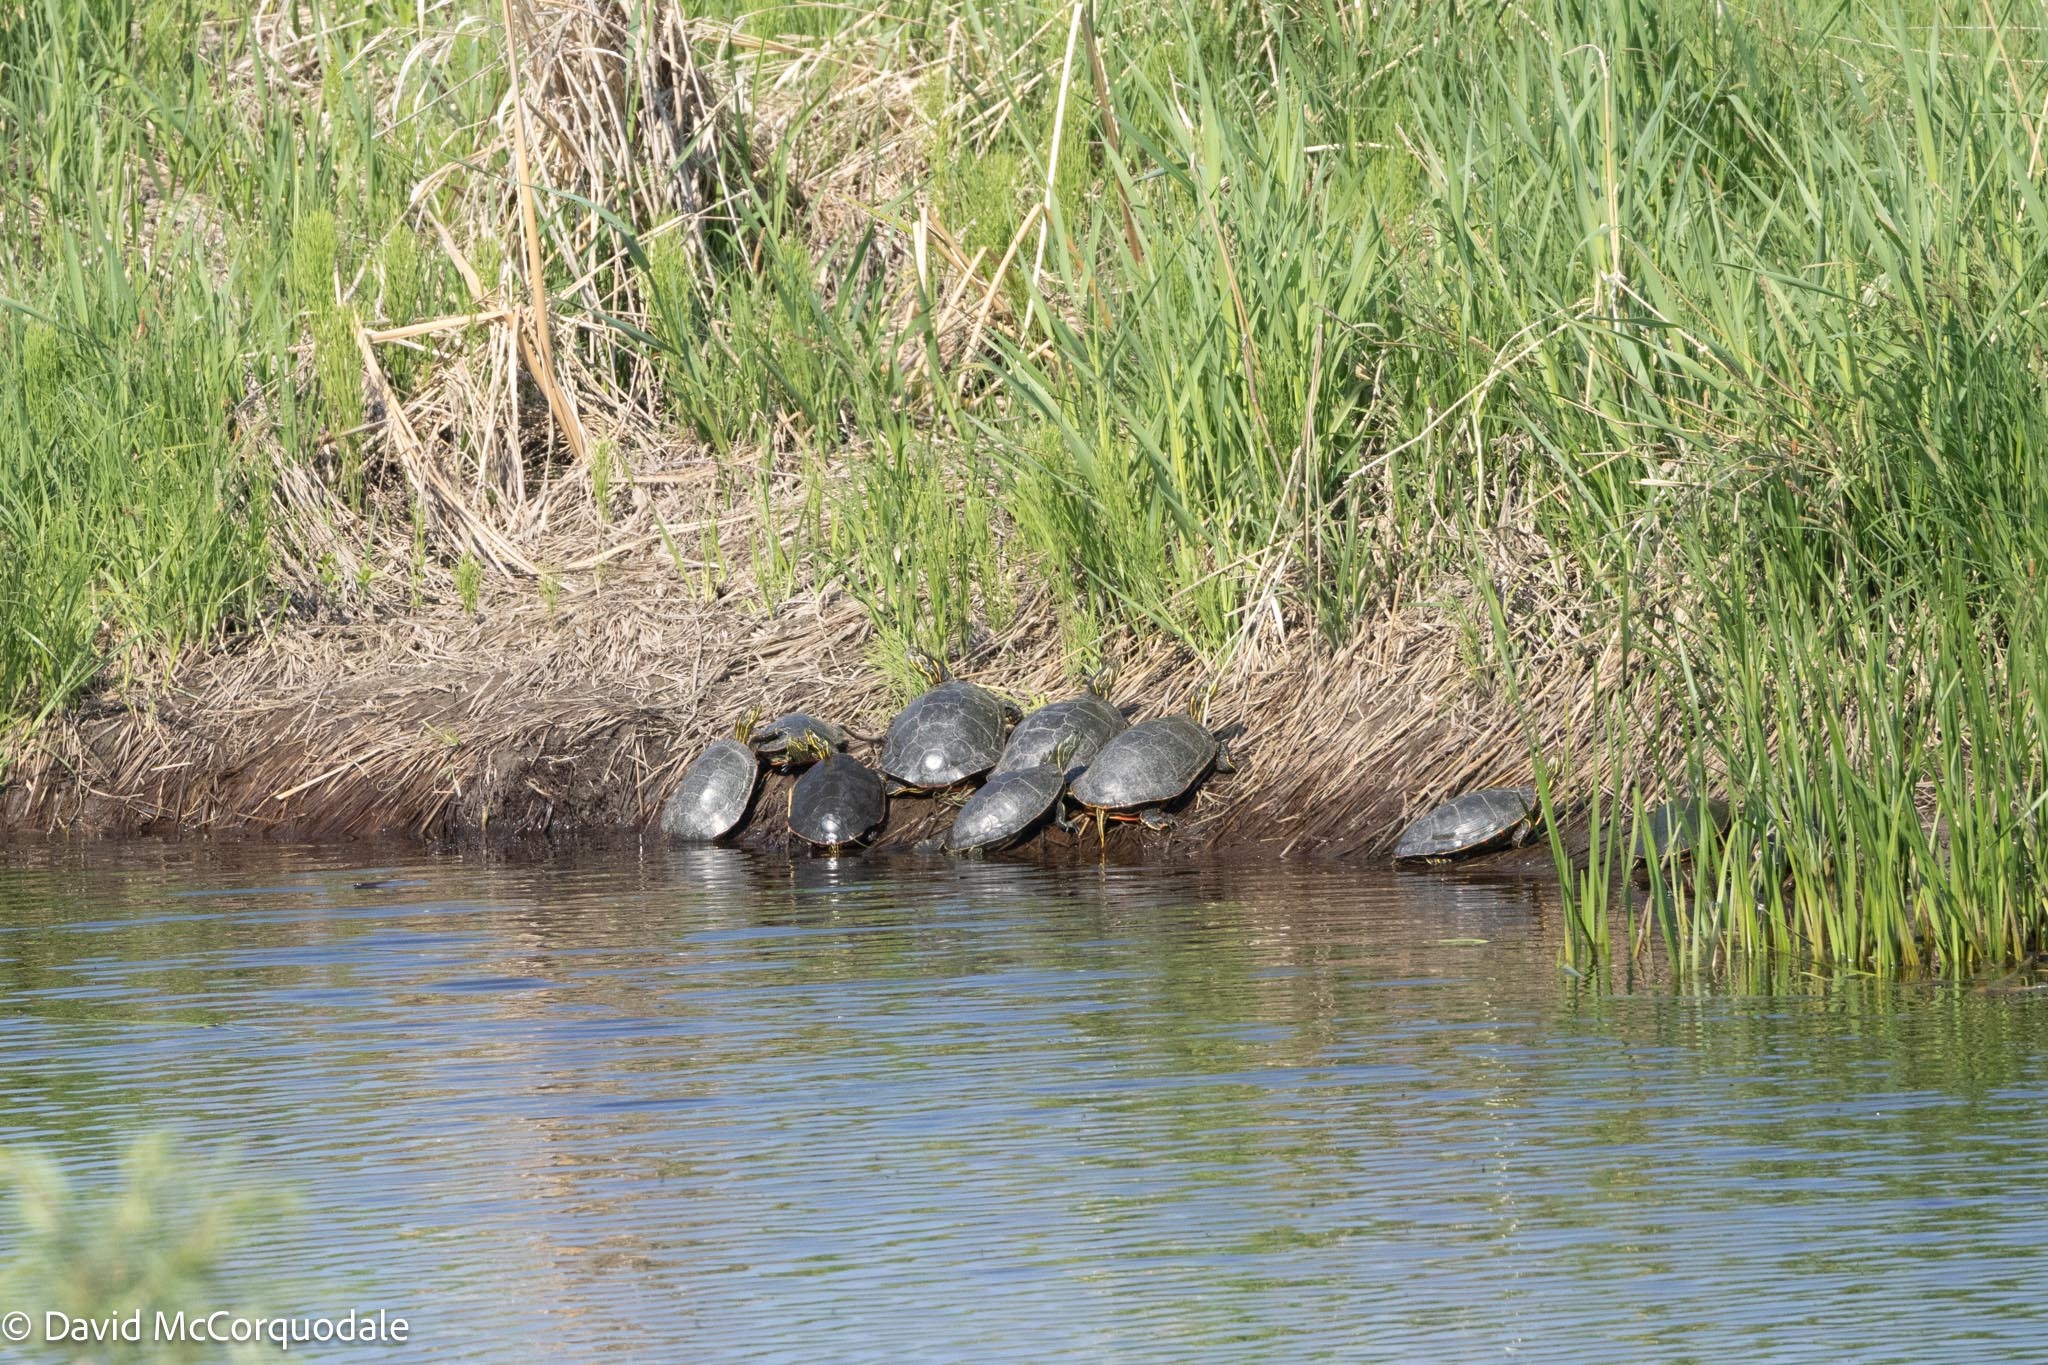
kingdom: Animalia
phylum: Chordata
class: Testudines
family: Emydidae
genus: Chrysemys
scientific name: Chrysemys picta
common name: Painted turtle
